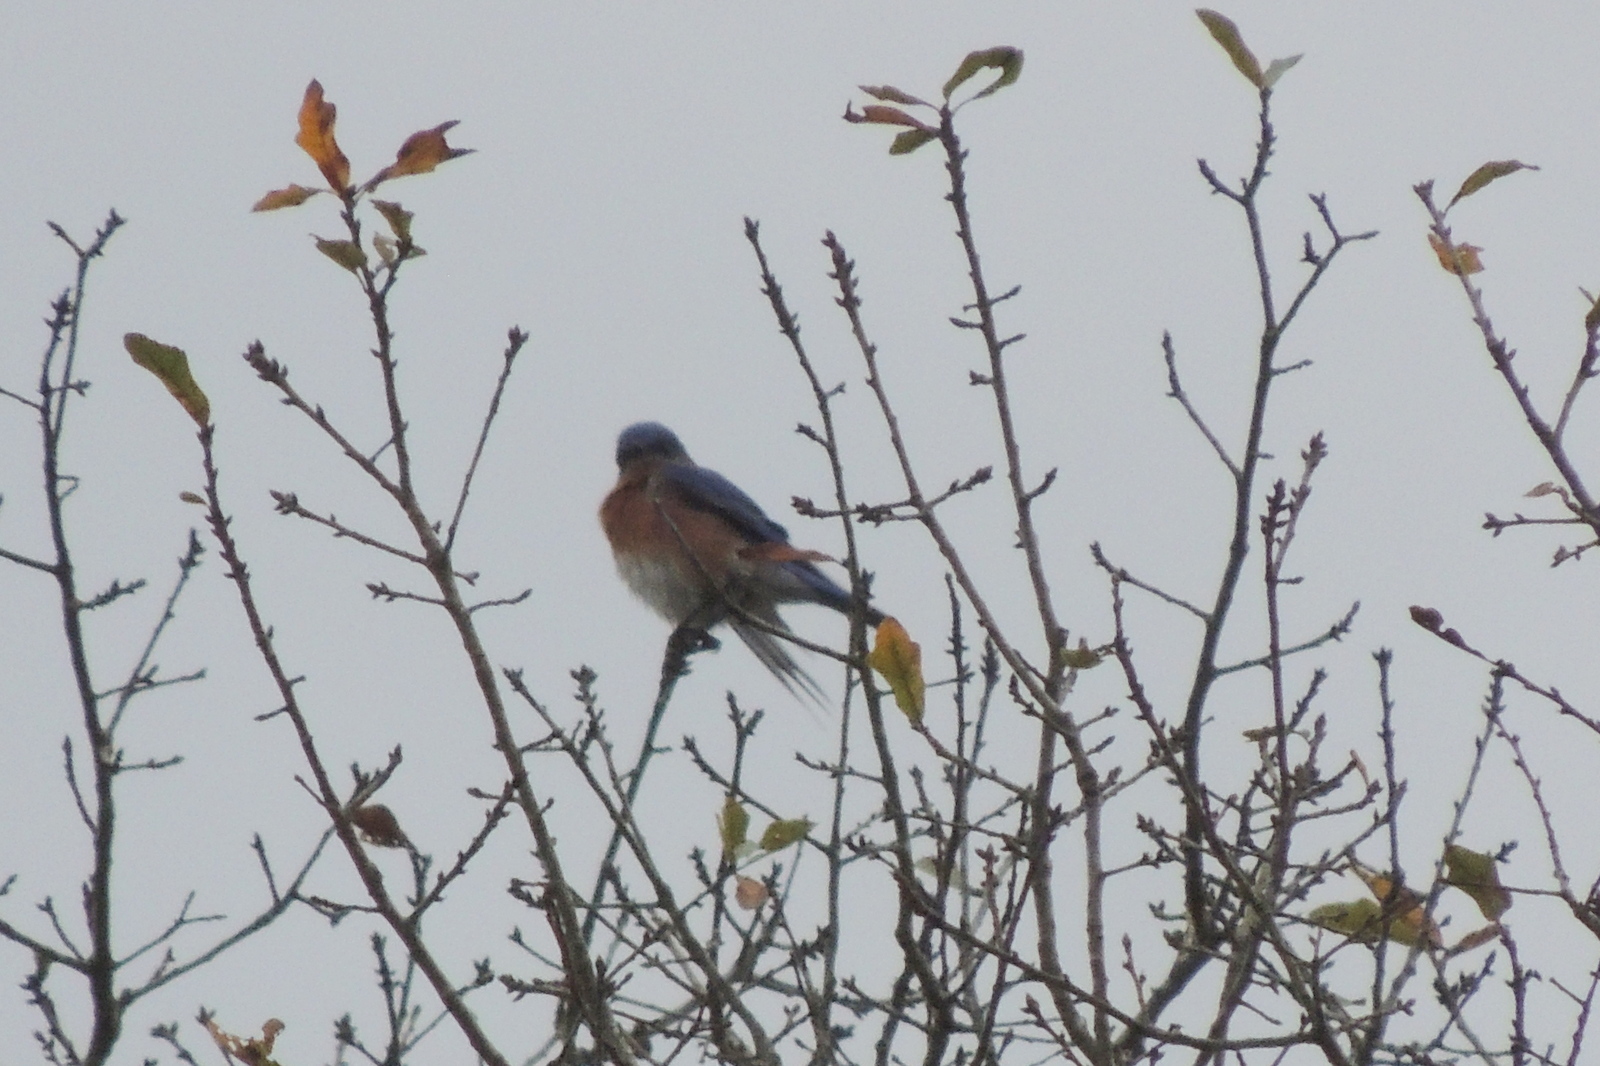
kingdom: Animalia
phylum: Chordata
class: Aves
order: Passeriformes
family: Turdidae
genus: Sialia
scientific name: Sialia sialis
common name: Eastern bluebird
